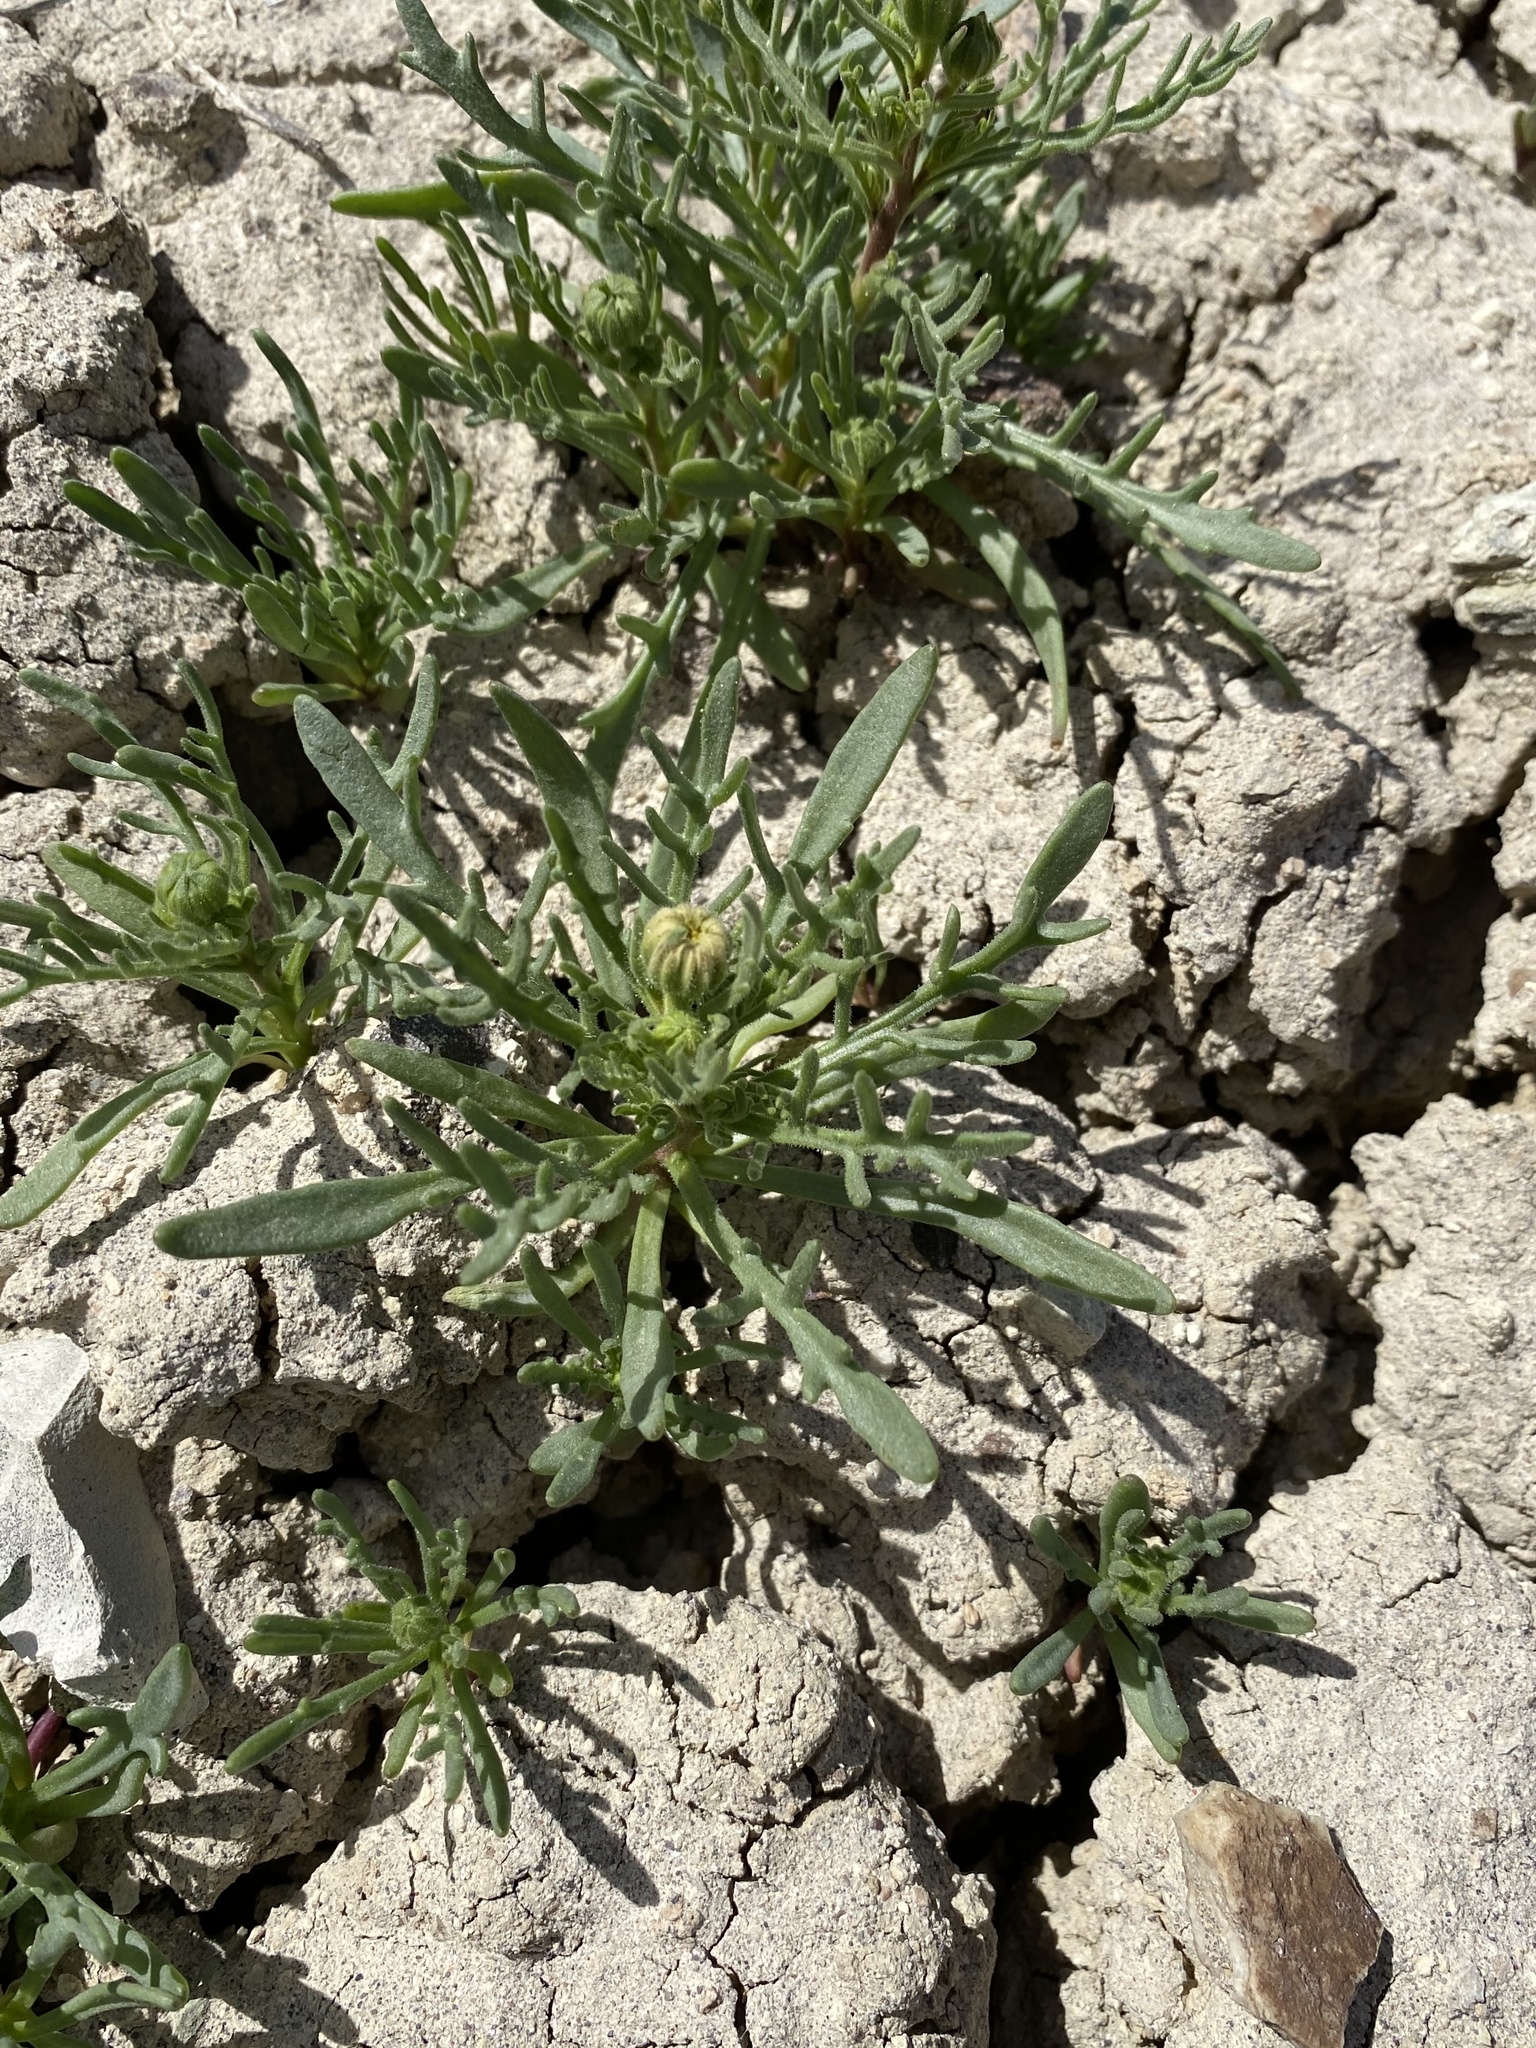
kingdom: Plantae
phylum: Tracheophyta
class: Magnoliopsida
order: Asterales
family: Asteraceae
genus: Chaenactis
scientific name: Chaenactis nevii
